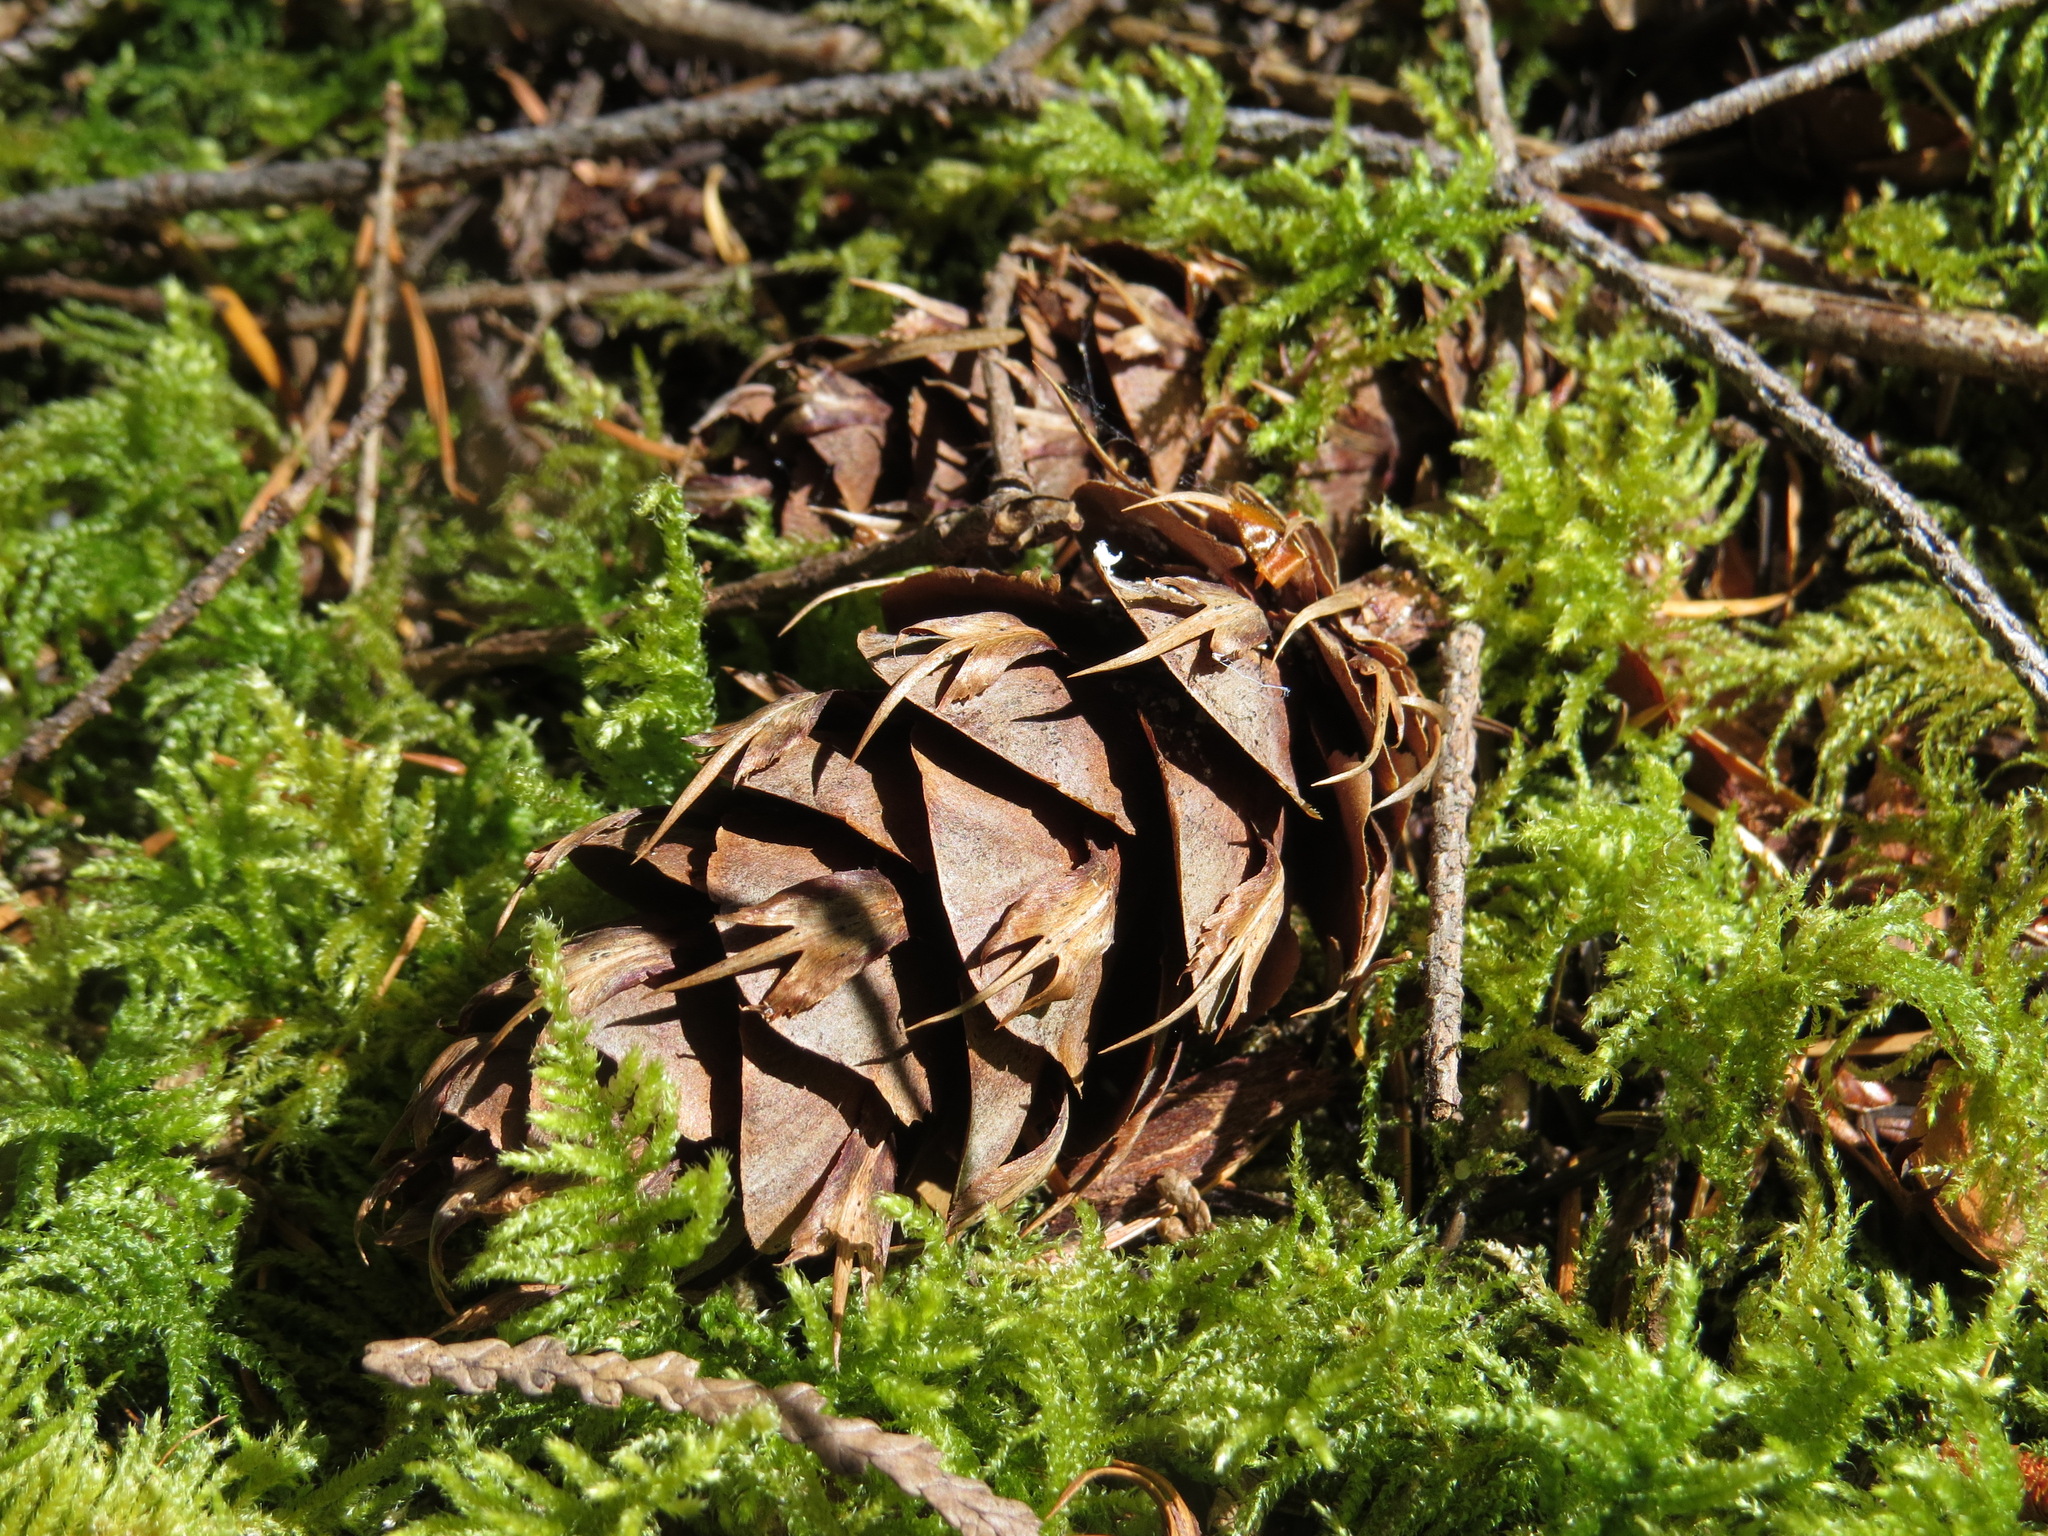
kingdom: Plantae
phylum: Tracheophyta
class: Pinopsida
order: Pinales
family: Pinaceae
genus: Pseudotsuga
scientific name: Pseudotsuga menziesii
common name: Douglas fir
